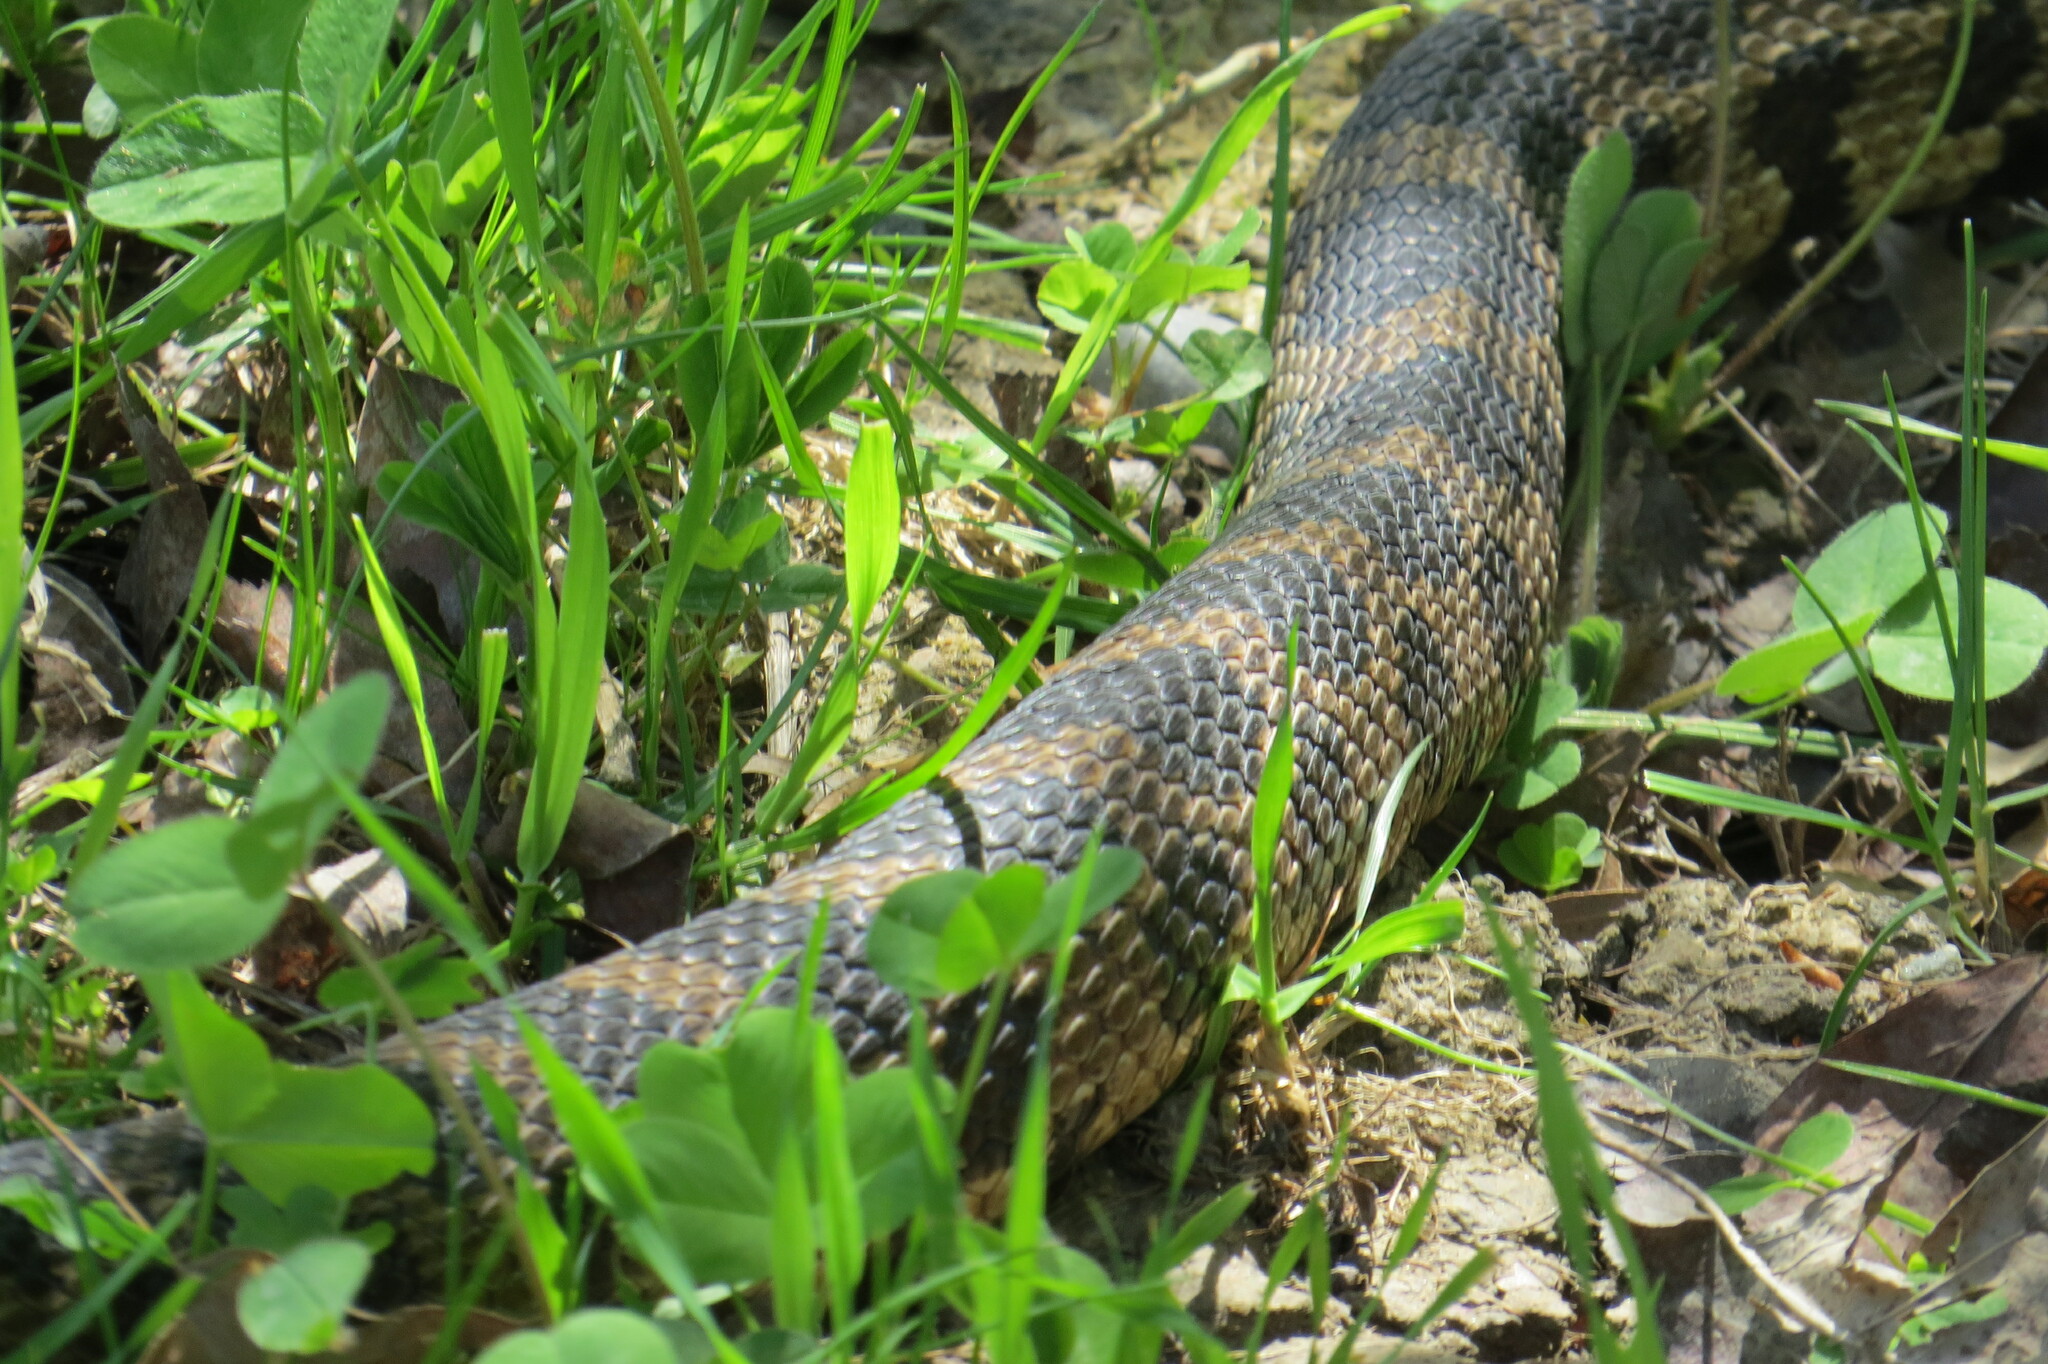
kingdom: Animalia
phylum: Chordata
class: Squamata
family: Colubridae
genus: Pantherophis
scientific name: Pantherophis vulpinus
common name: Eastern fox snake
